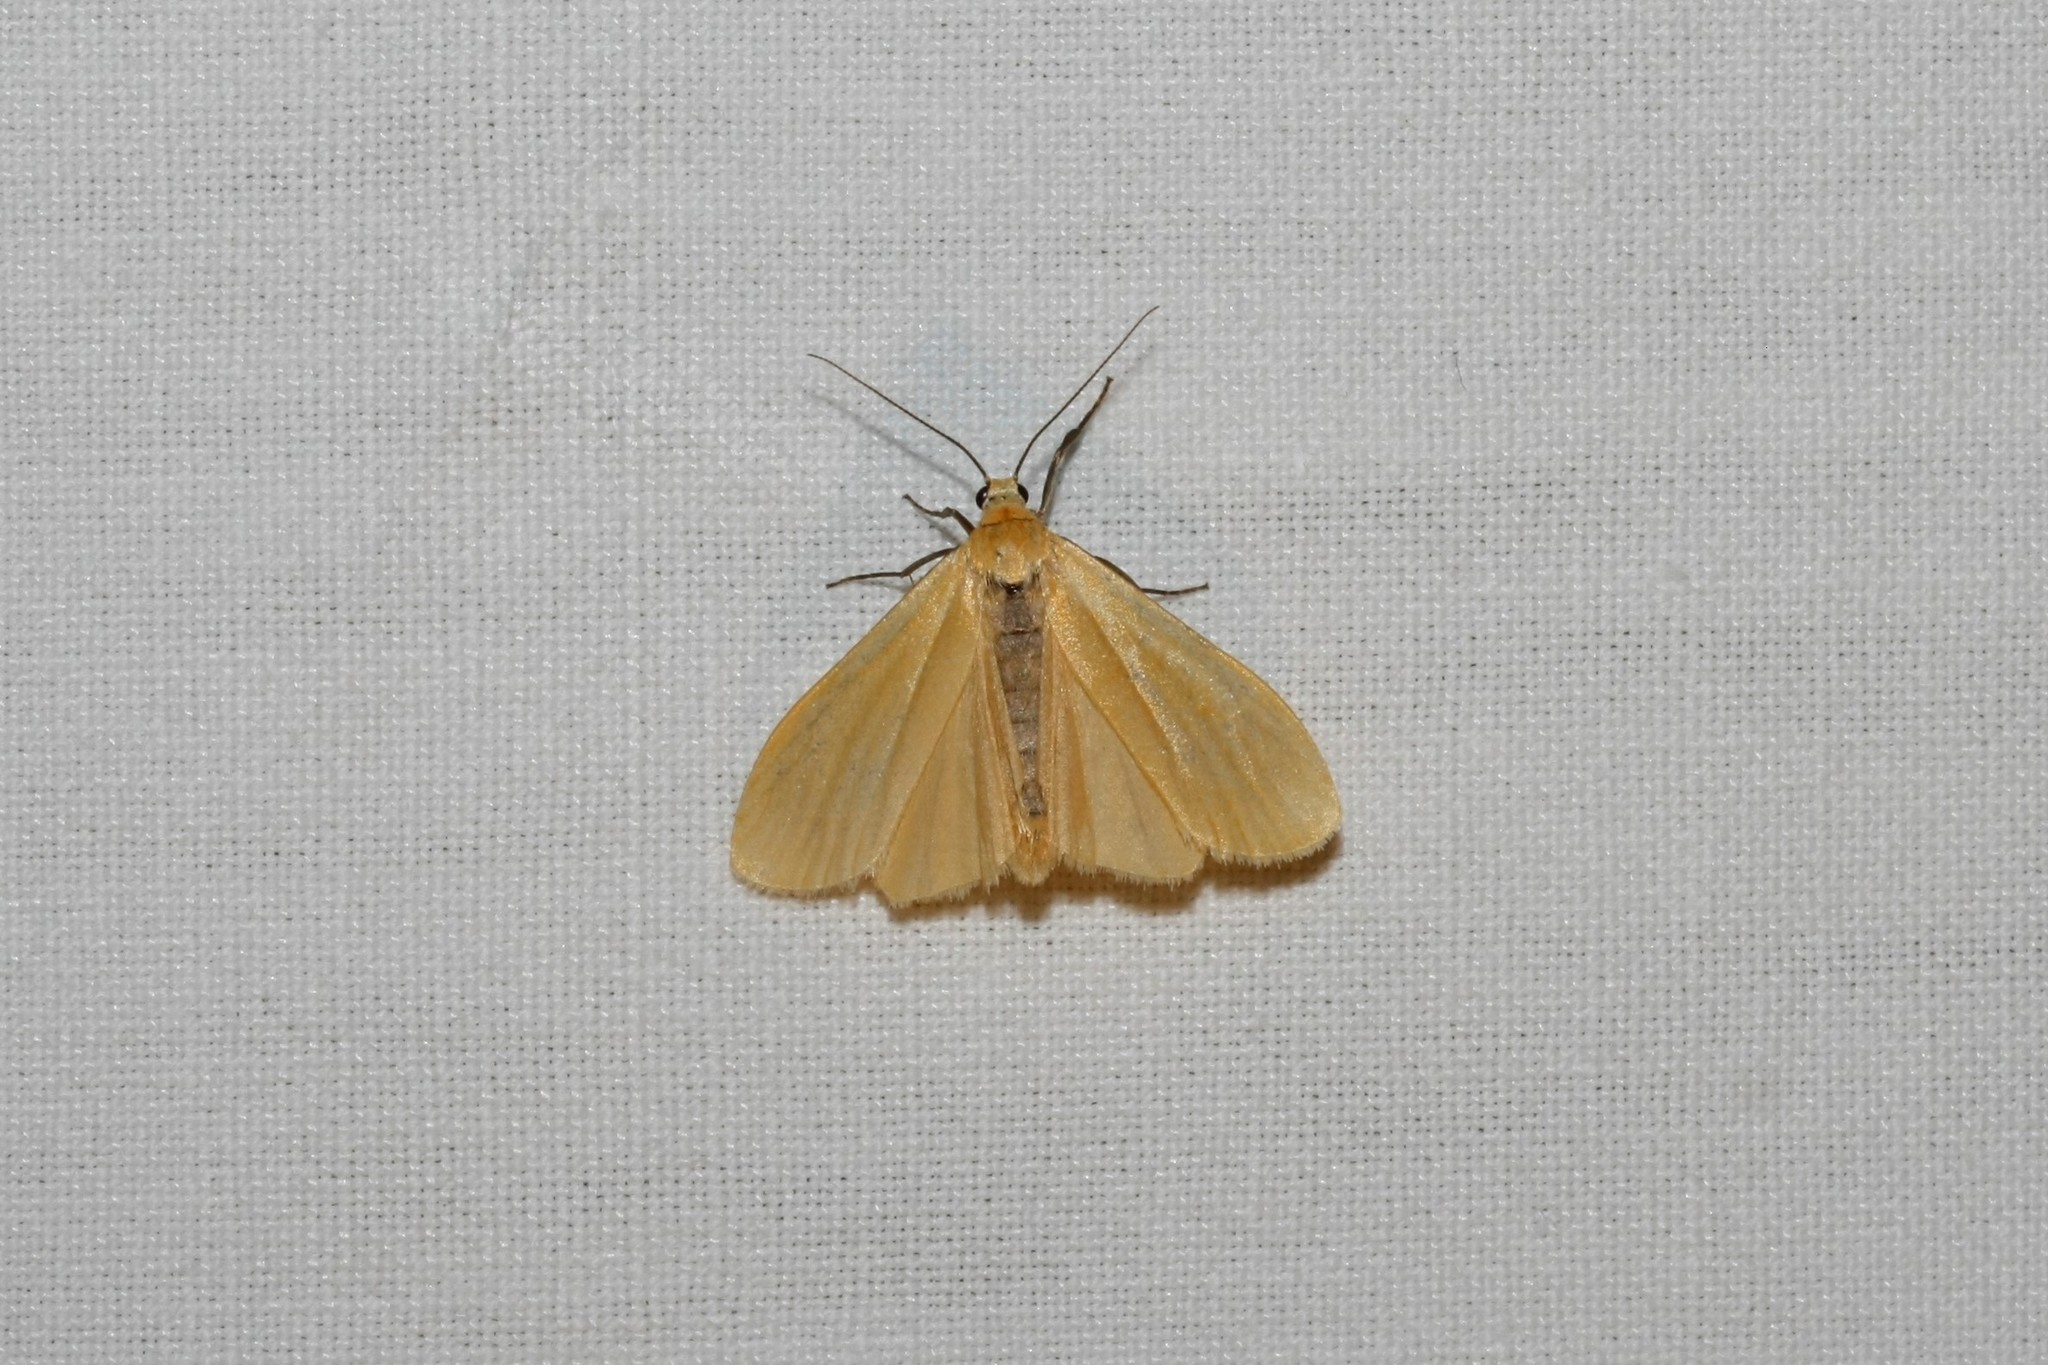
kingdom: Animalia
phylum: Arthropoda
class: Insecta
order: Lepidoptera
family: Erebidae
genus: Wittia
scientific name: Wittia sororcula
